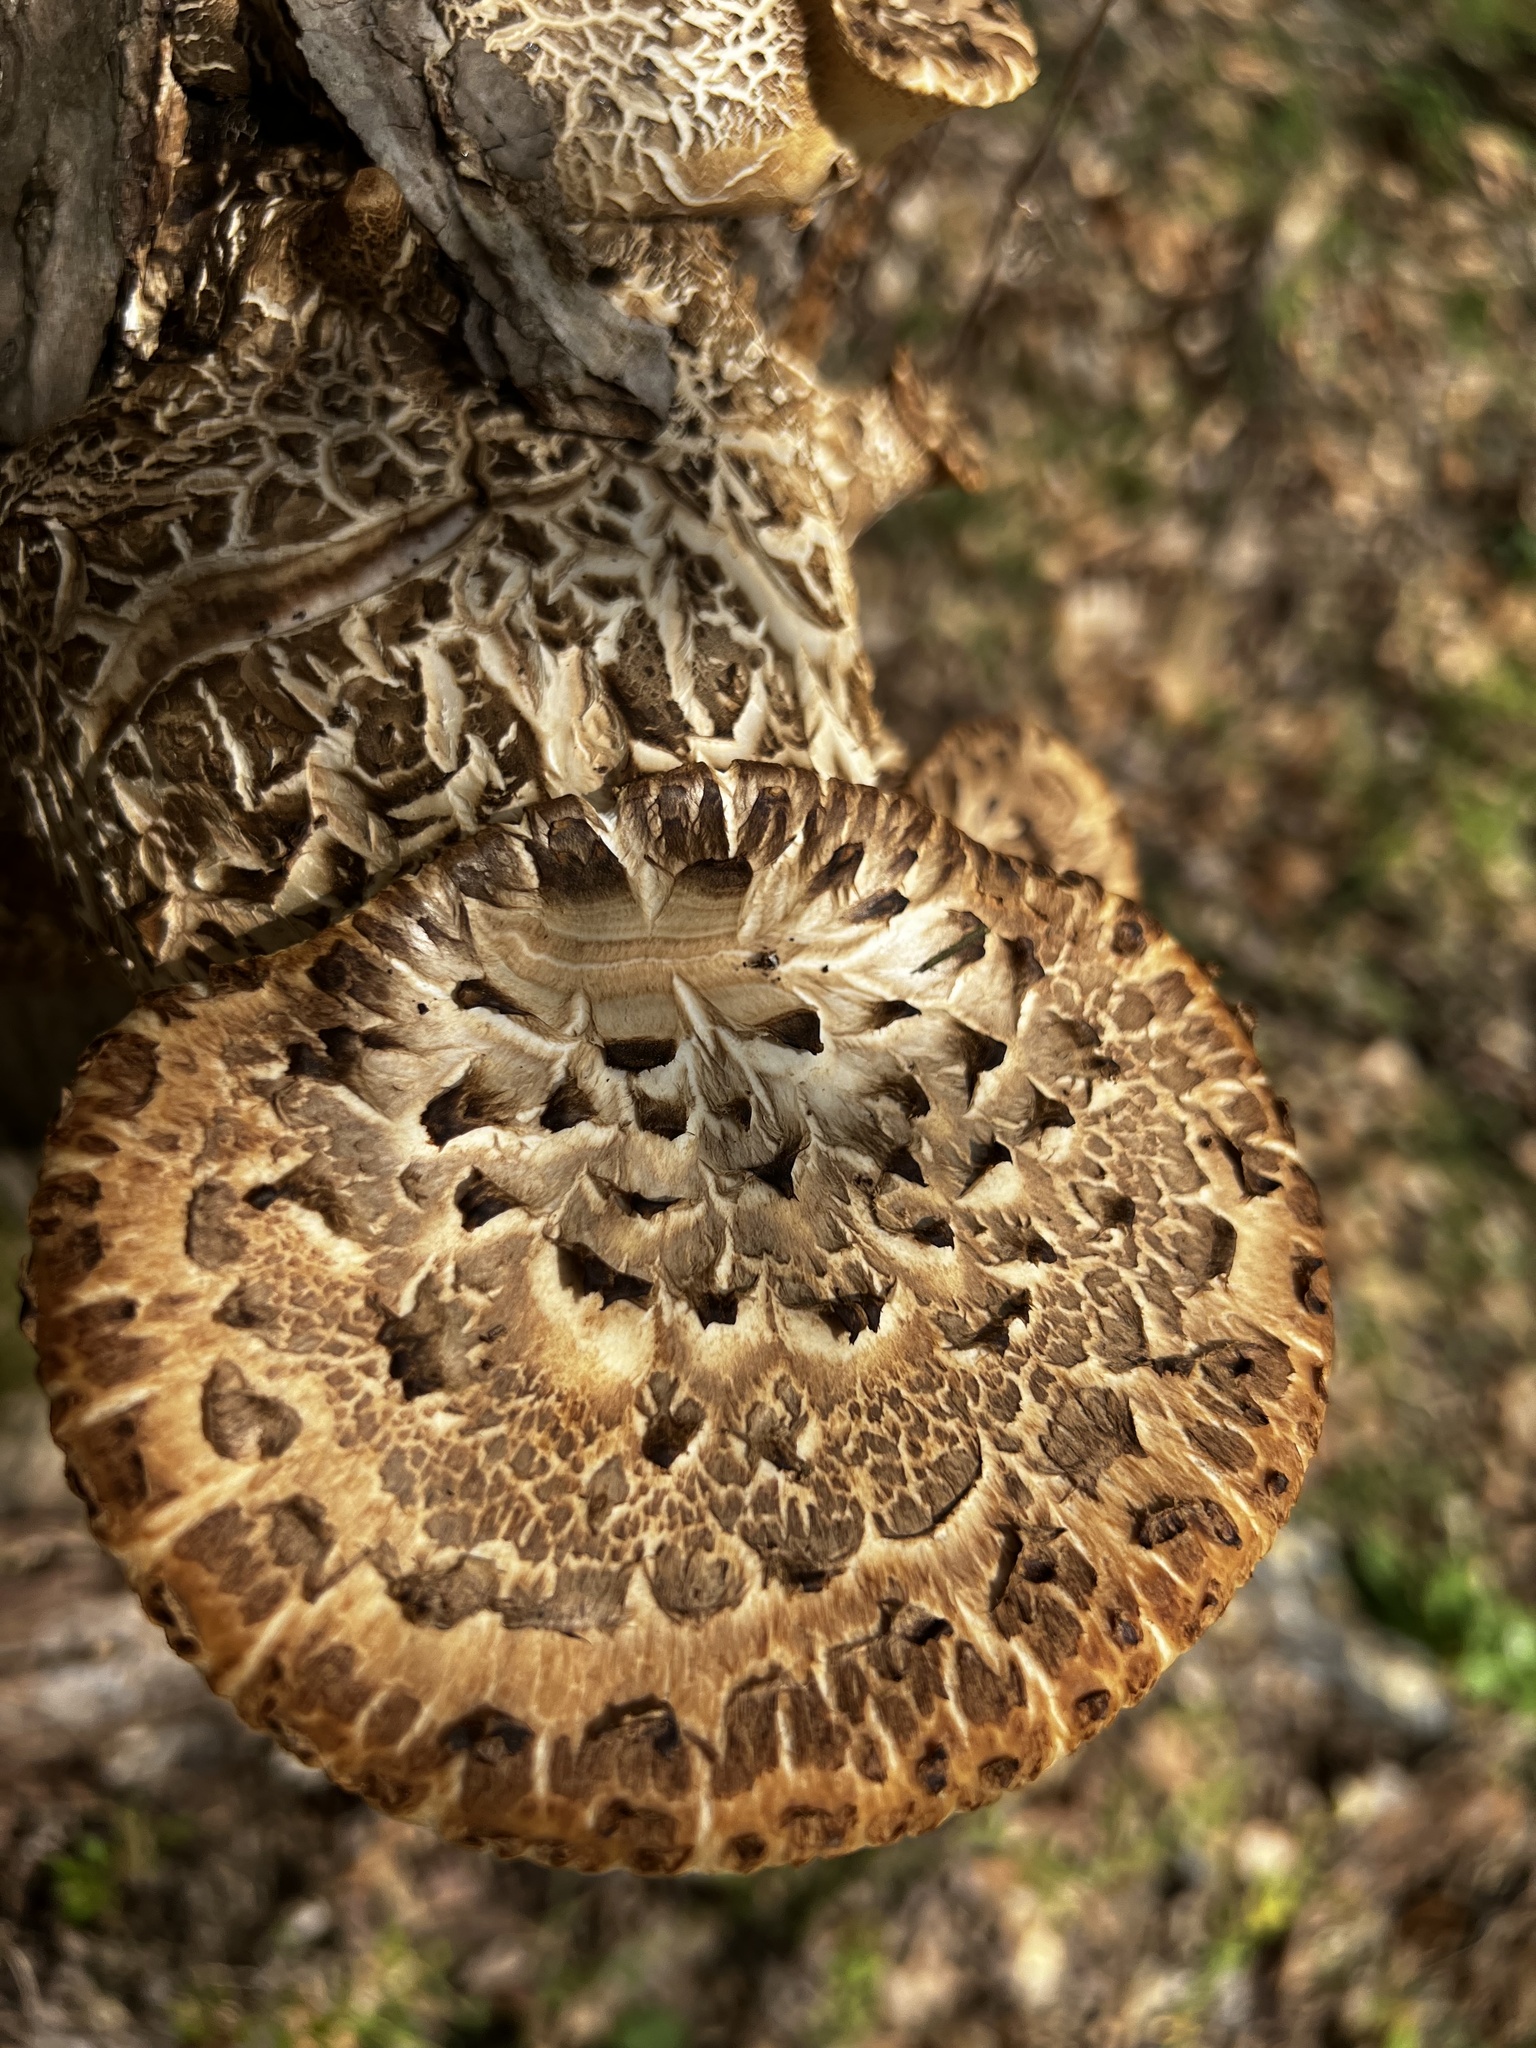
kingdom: Fungi
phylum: Basidiomycota
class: Agaricomycetes
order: Polyporales
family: Polyporaceae
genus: Cerioporus
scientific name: Cerioporus squamosus
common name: Dryad's saddle
